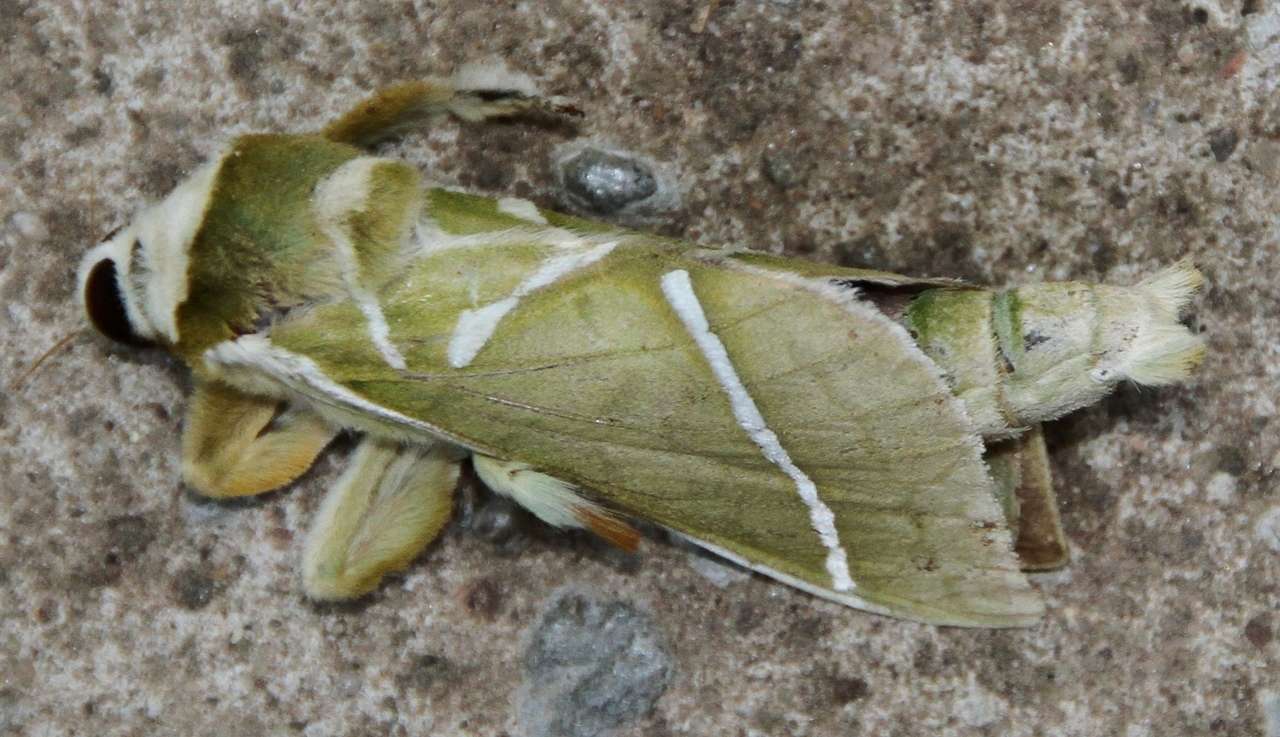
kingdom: Animalia
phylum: Arthropoda
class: Insecta
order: Lepidoptera
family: Hepialidae
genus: Aenetus
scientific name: Aenetus ligniveren
